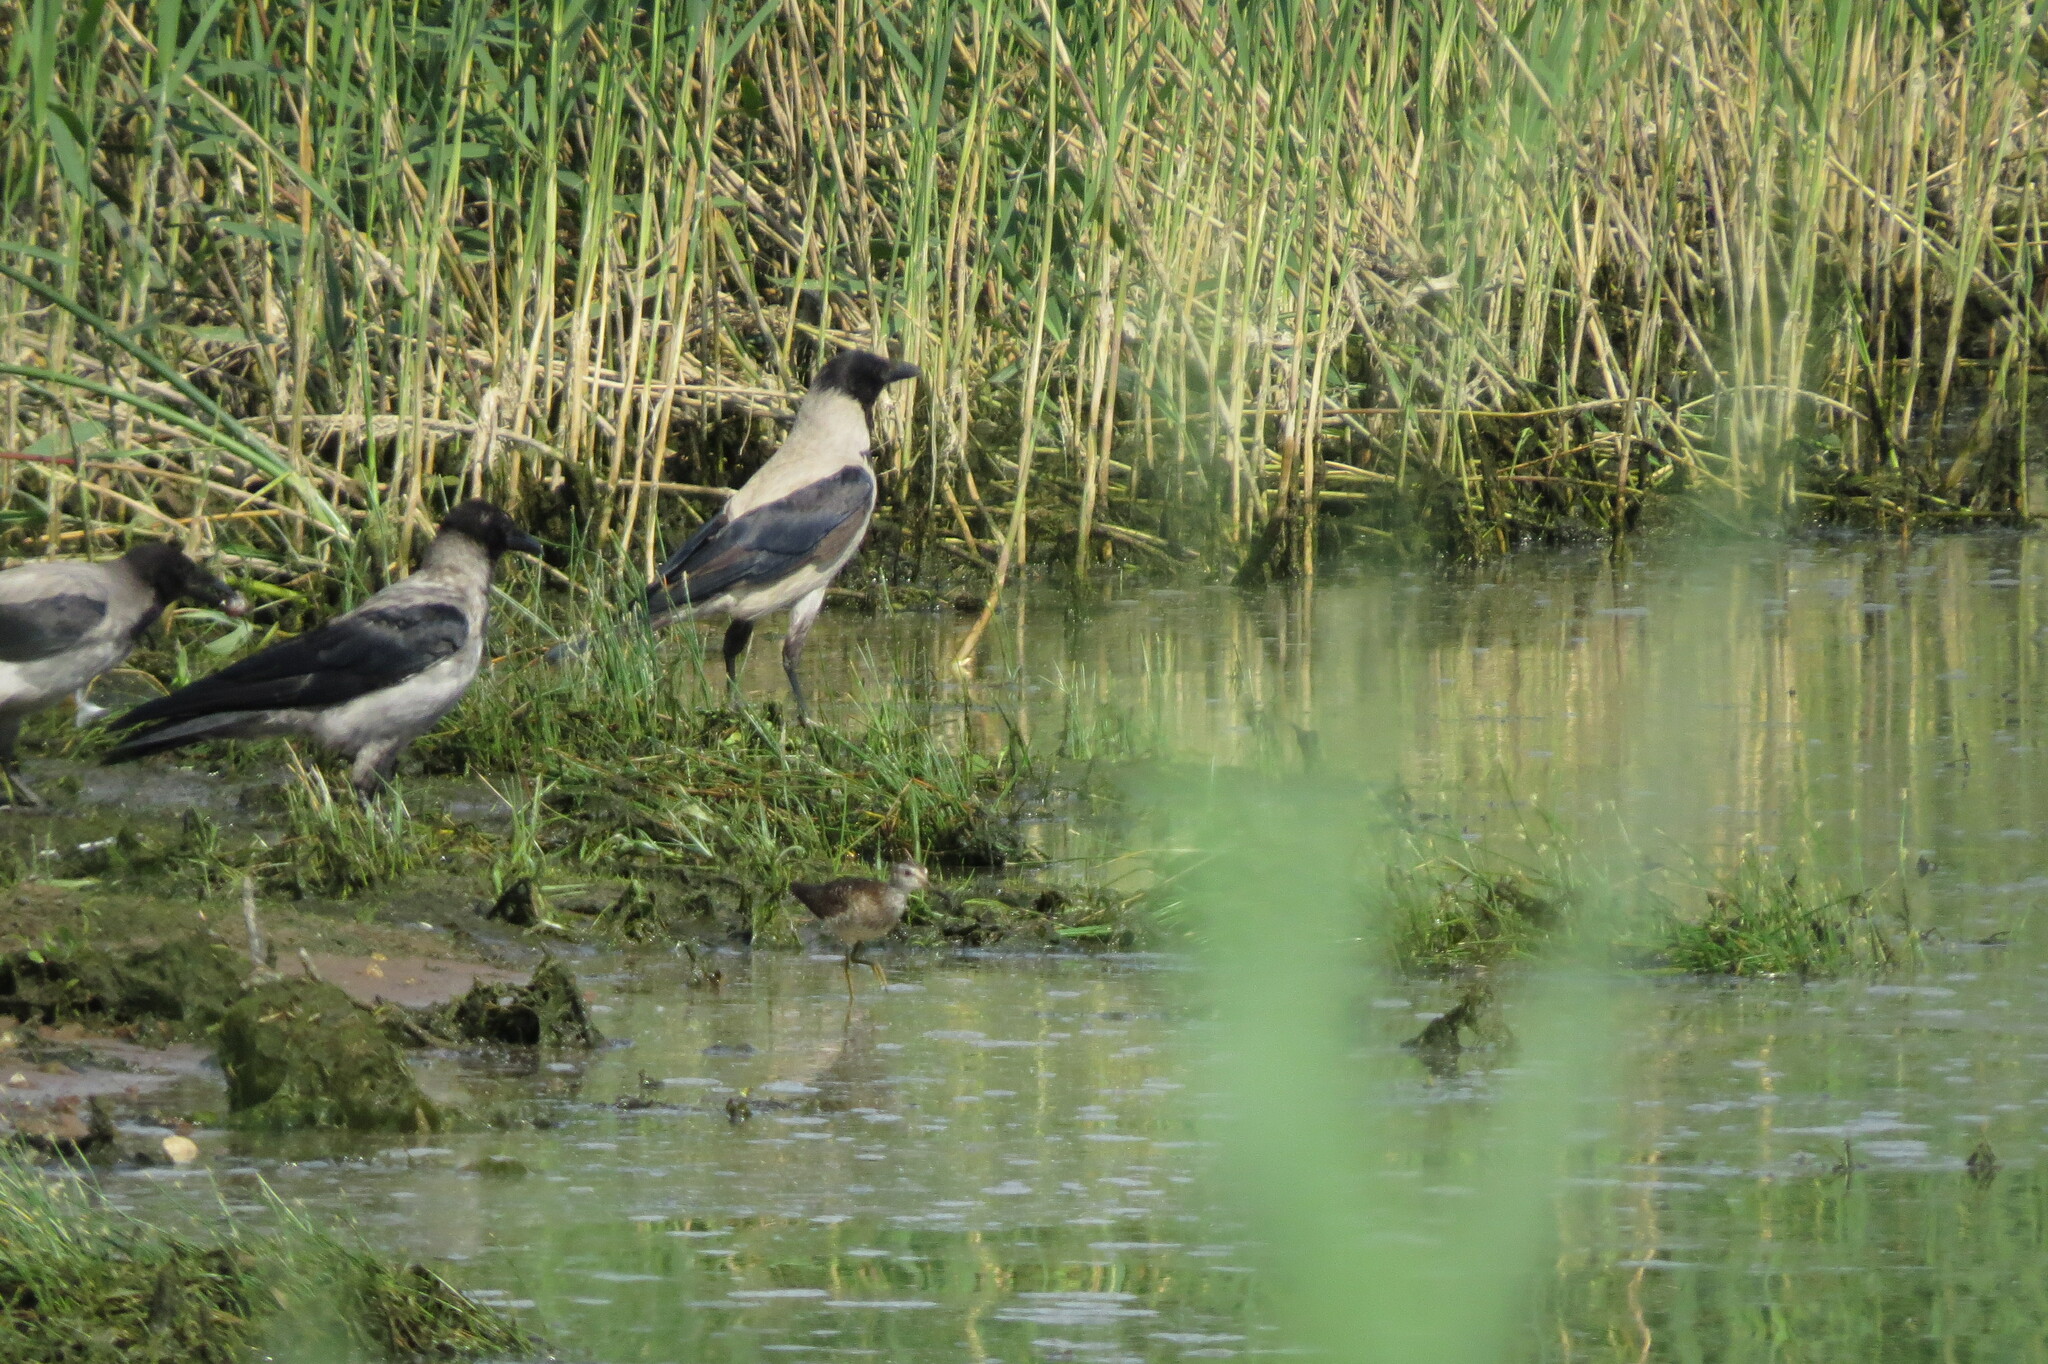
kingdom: Animalia
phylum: Chordata
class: Aves
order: Passeriformes
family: Corvidae
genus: Corvus
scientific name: Corvus cornix
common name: Hooded crow
